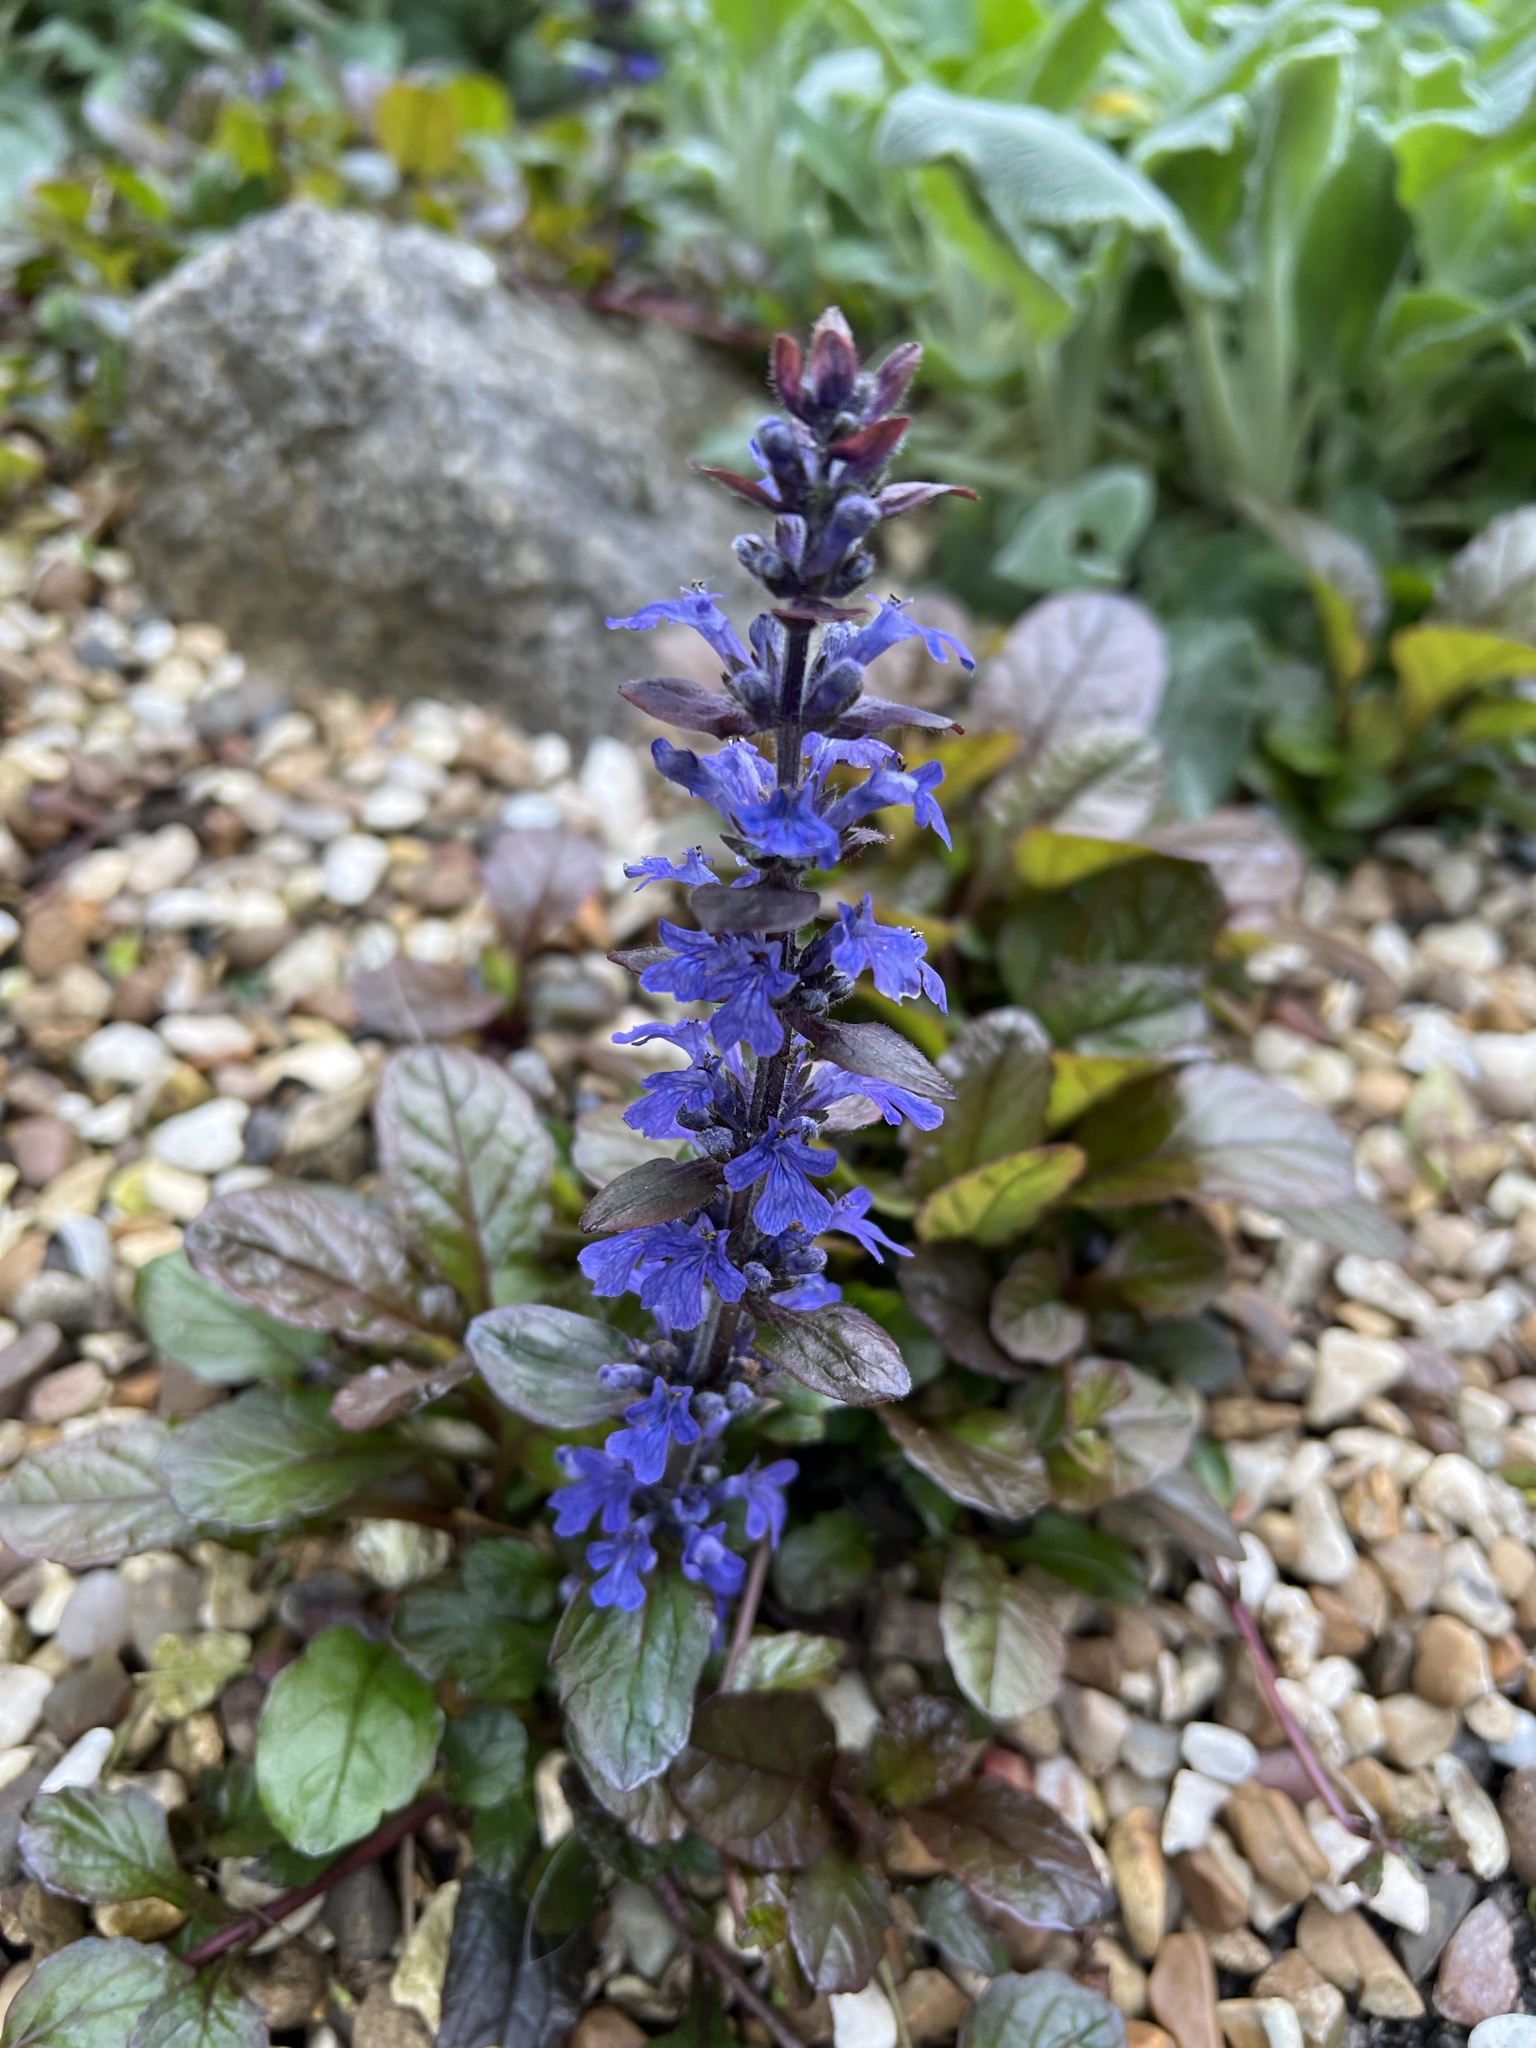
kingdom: Plantae
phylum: Tracheophyta
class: Magnoliopsida
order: Lamiales
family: Lamiaceae
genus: Ajuga
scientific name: Ajuga reptans
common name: Bugle
